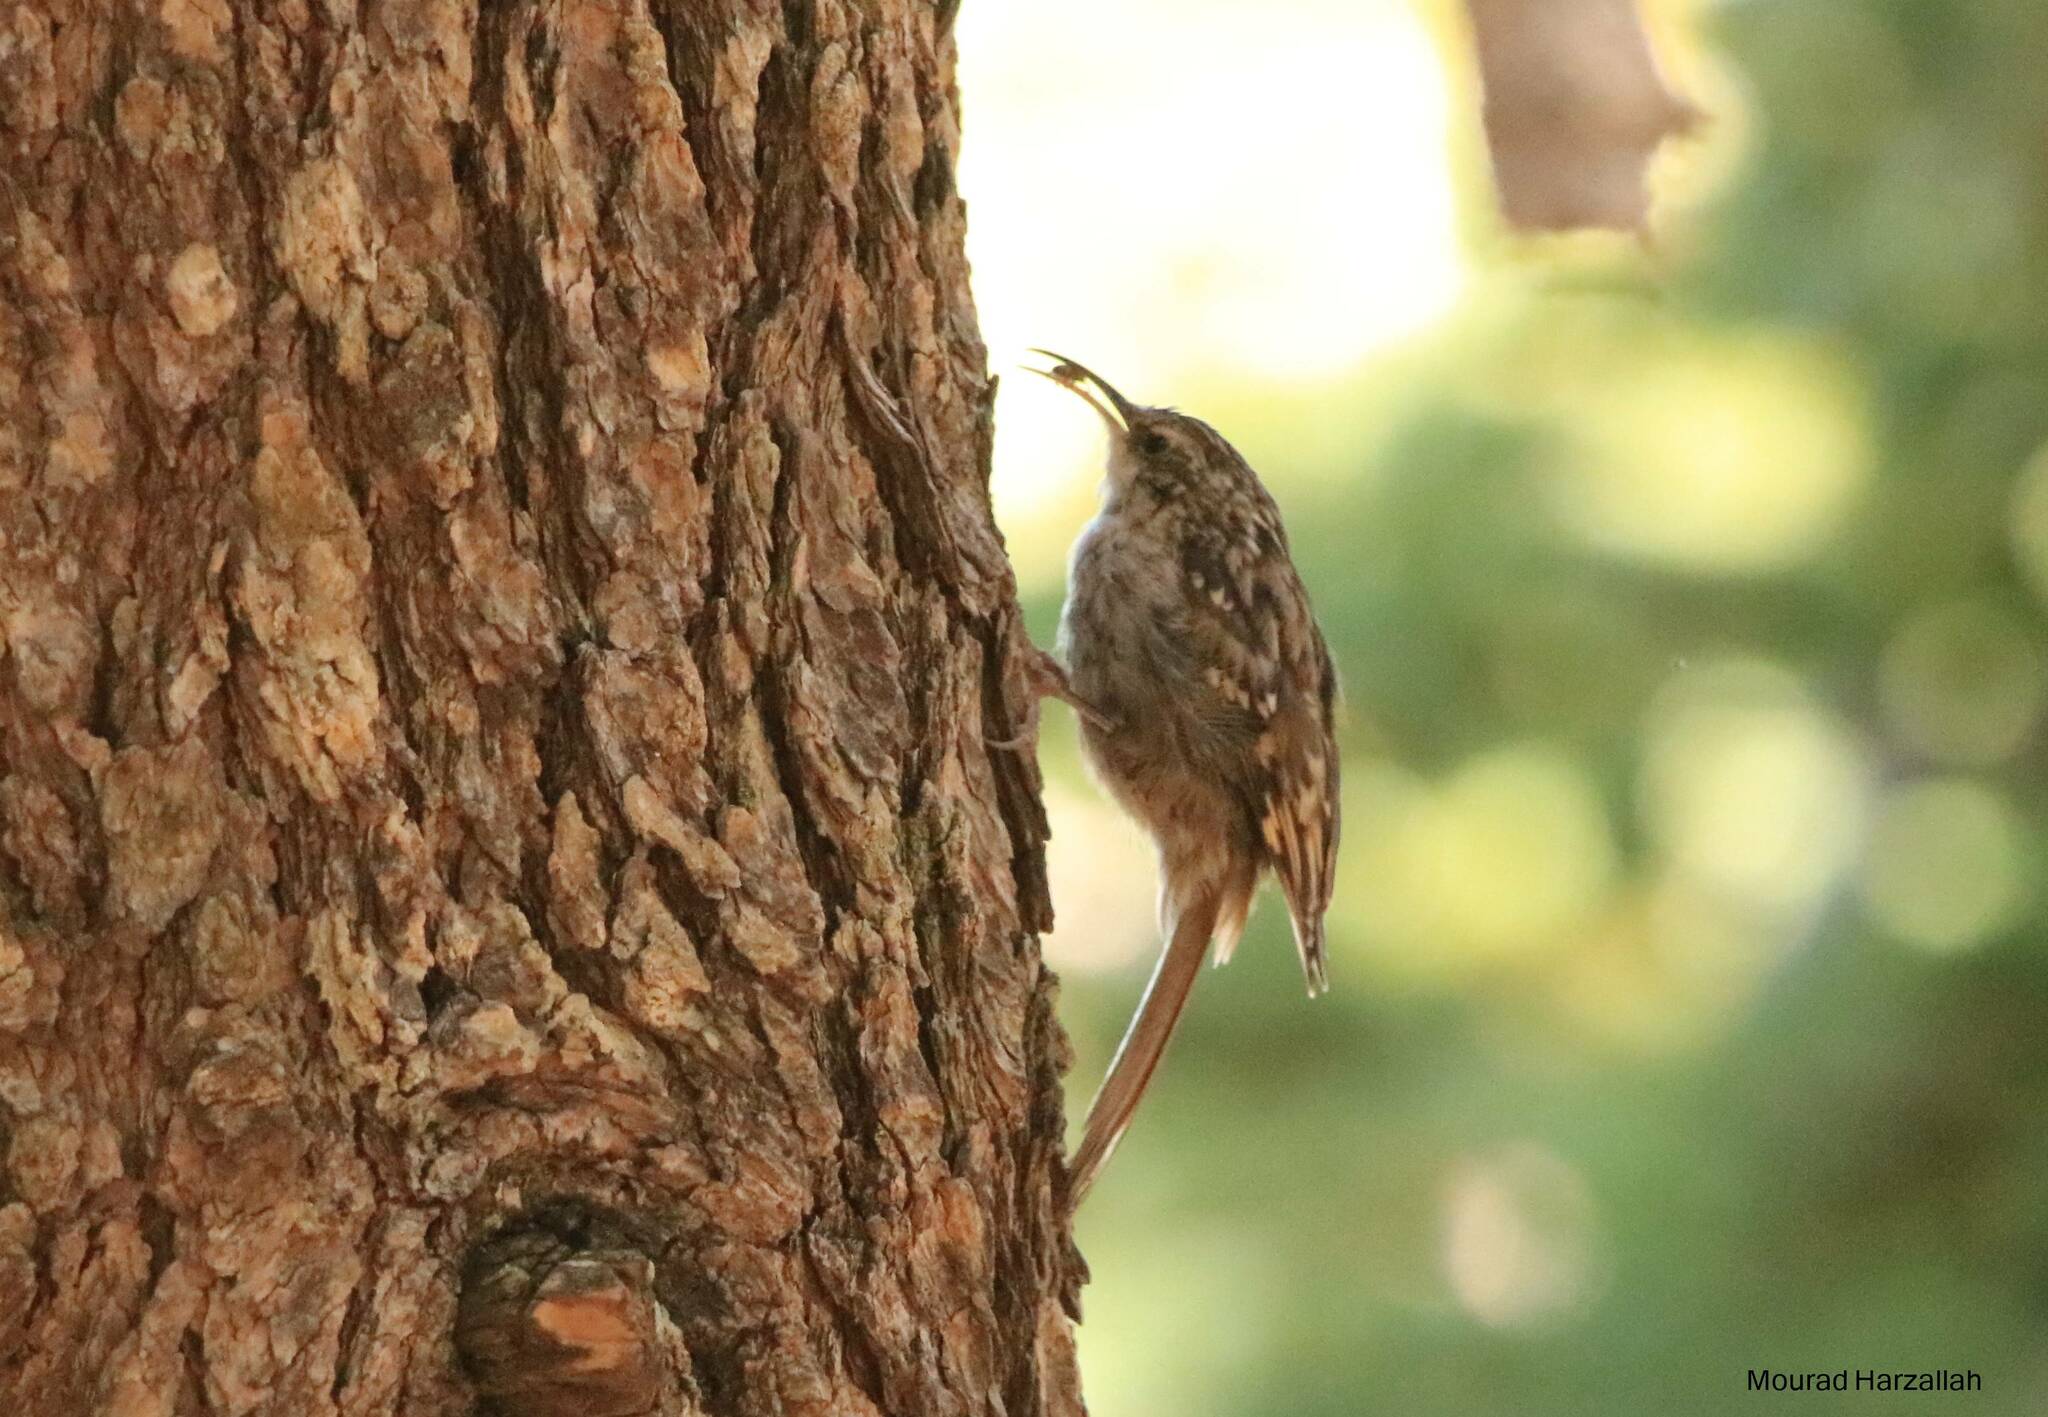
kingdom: Animalia
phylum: Chordata
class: Aves
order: Passeriformes
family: Certhiidae
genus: Certhia
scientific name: Certhia brachydactyla
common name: Short-toed treecreeper
